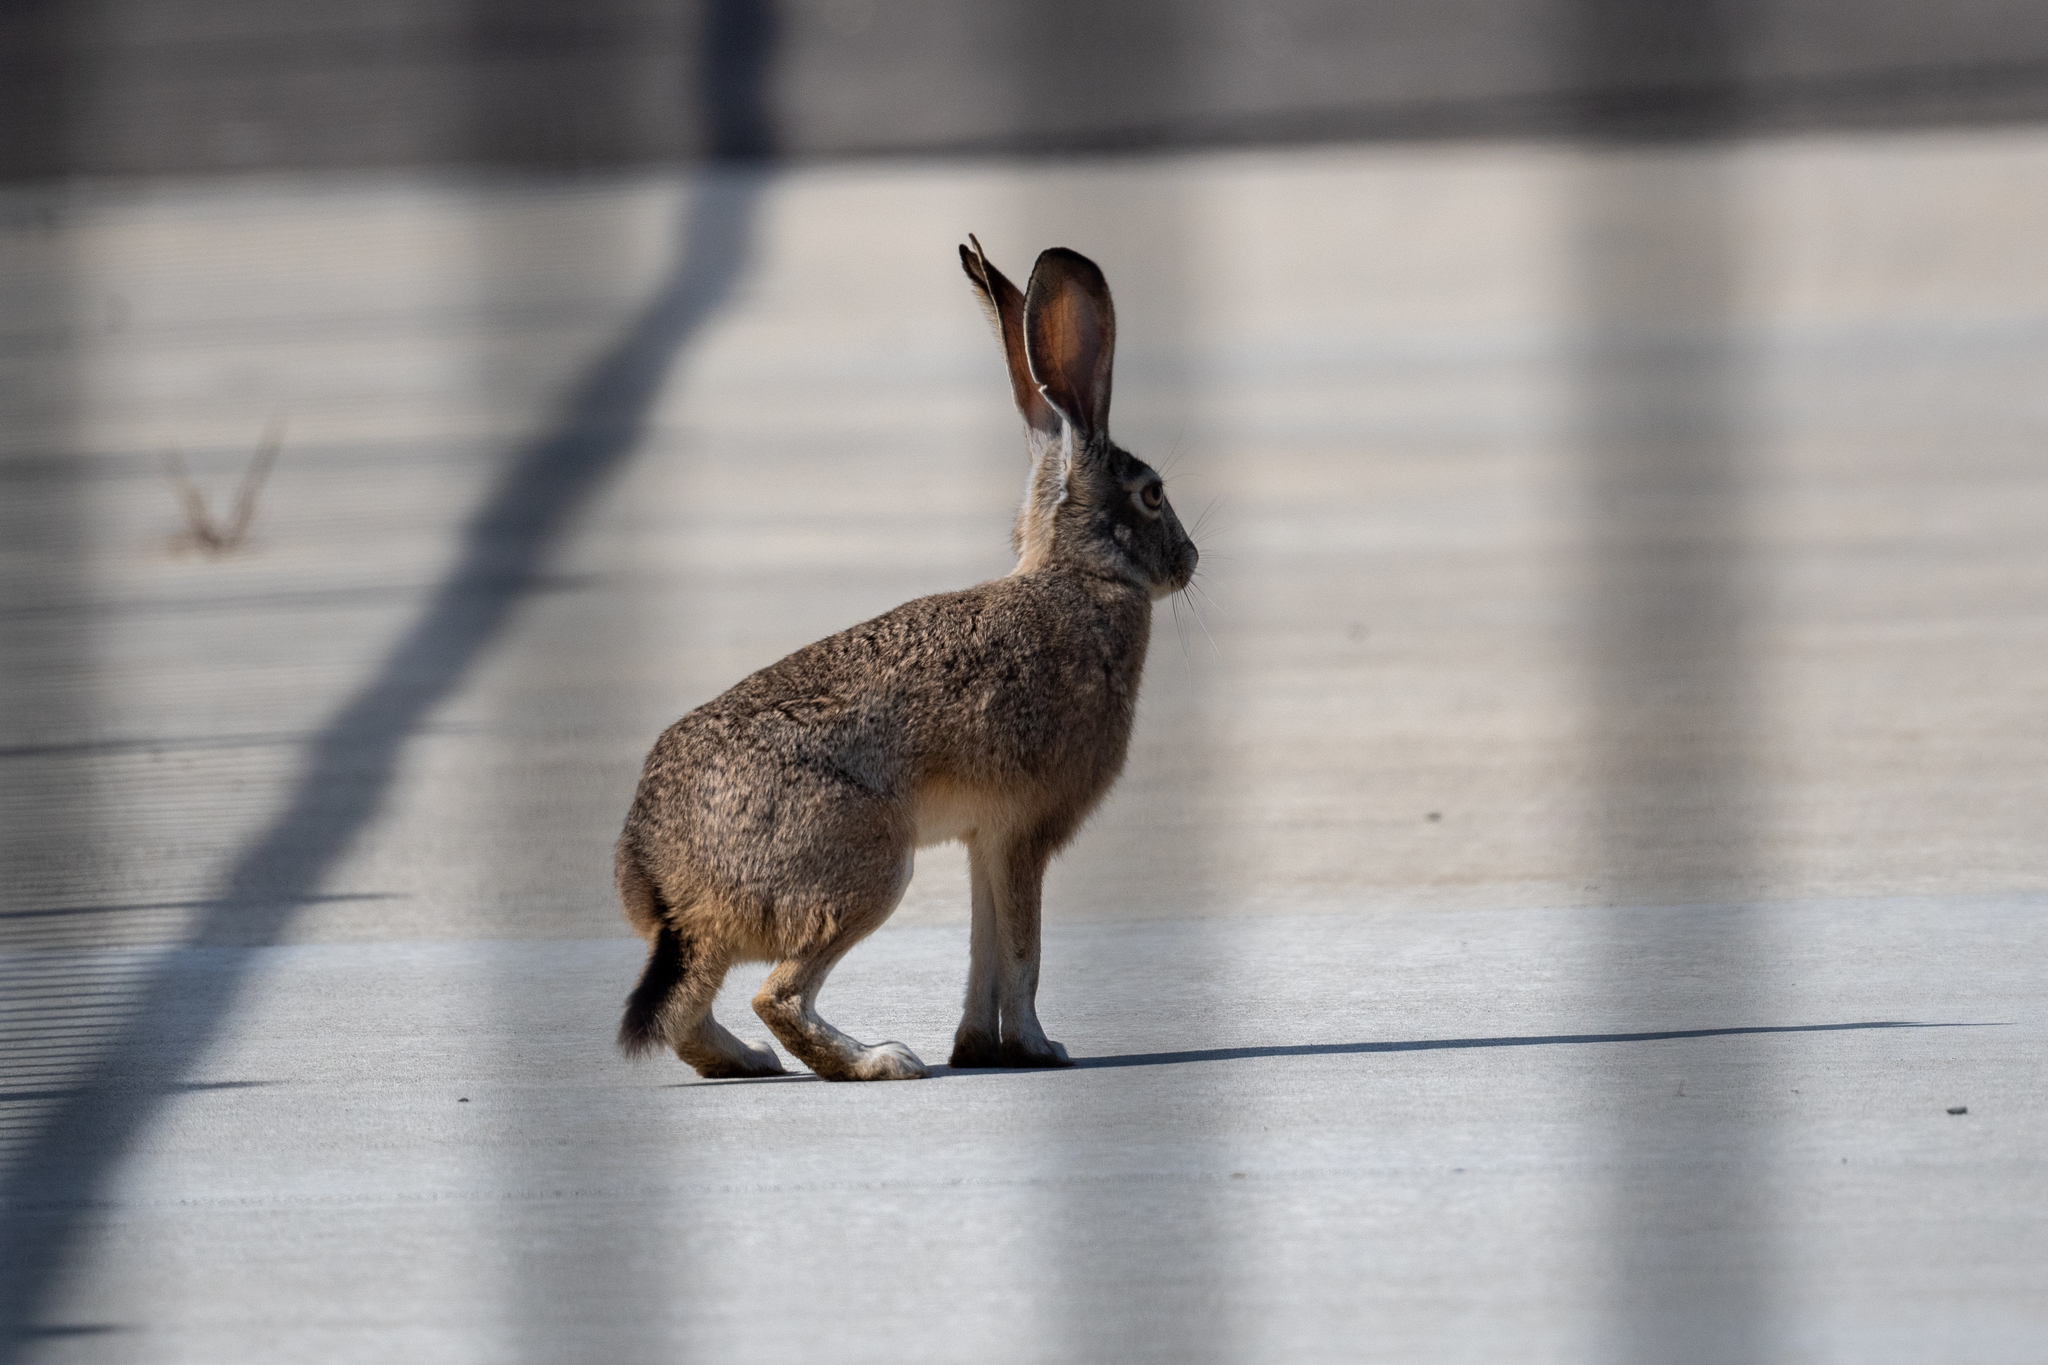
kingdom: Animalia
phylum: Chordata
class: Mammalia
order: Lagomorpha
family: Leporidae
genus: Lepus
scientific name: Lepus californicus
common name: Black-tailed jackrabbit
